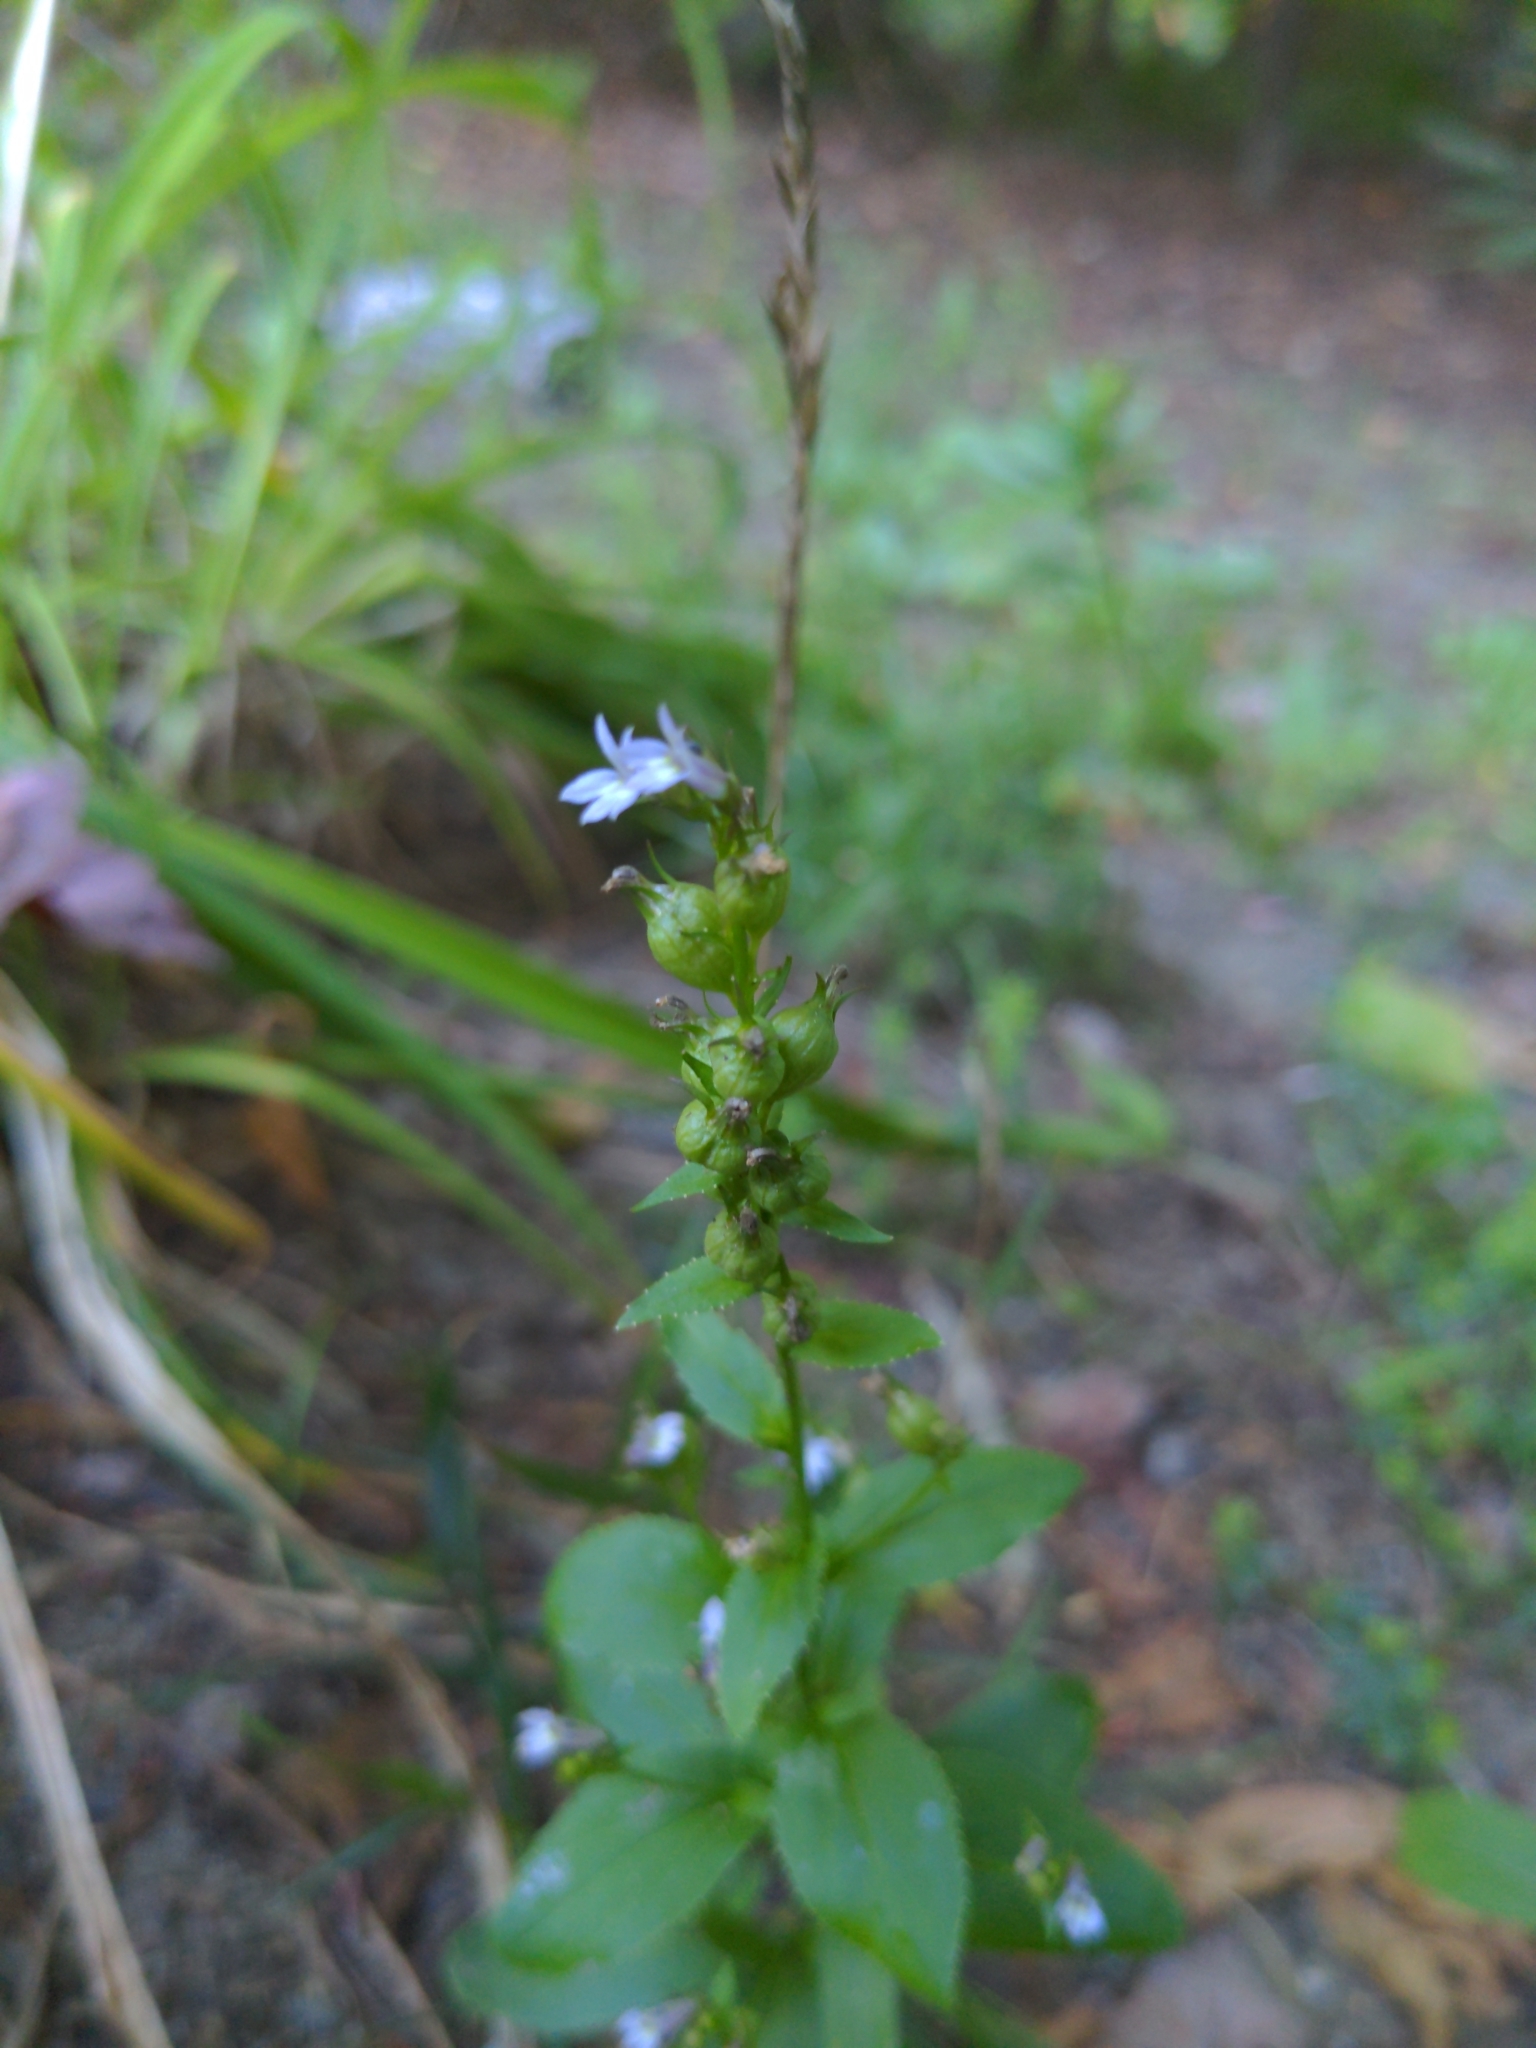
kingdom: Plantae
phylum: Tracheophyta
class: Magnoliopsida
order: Asterales
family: Campanulaceae
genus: Lobelia
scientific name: Lobelia inflata
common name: Indian tobacco
